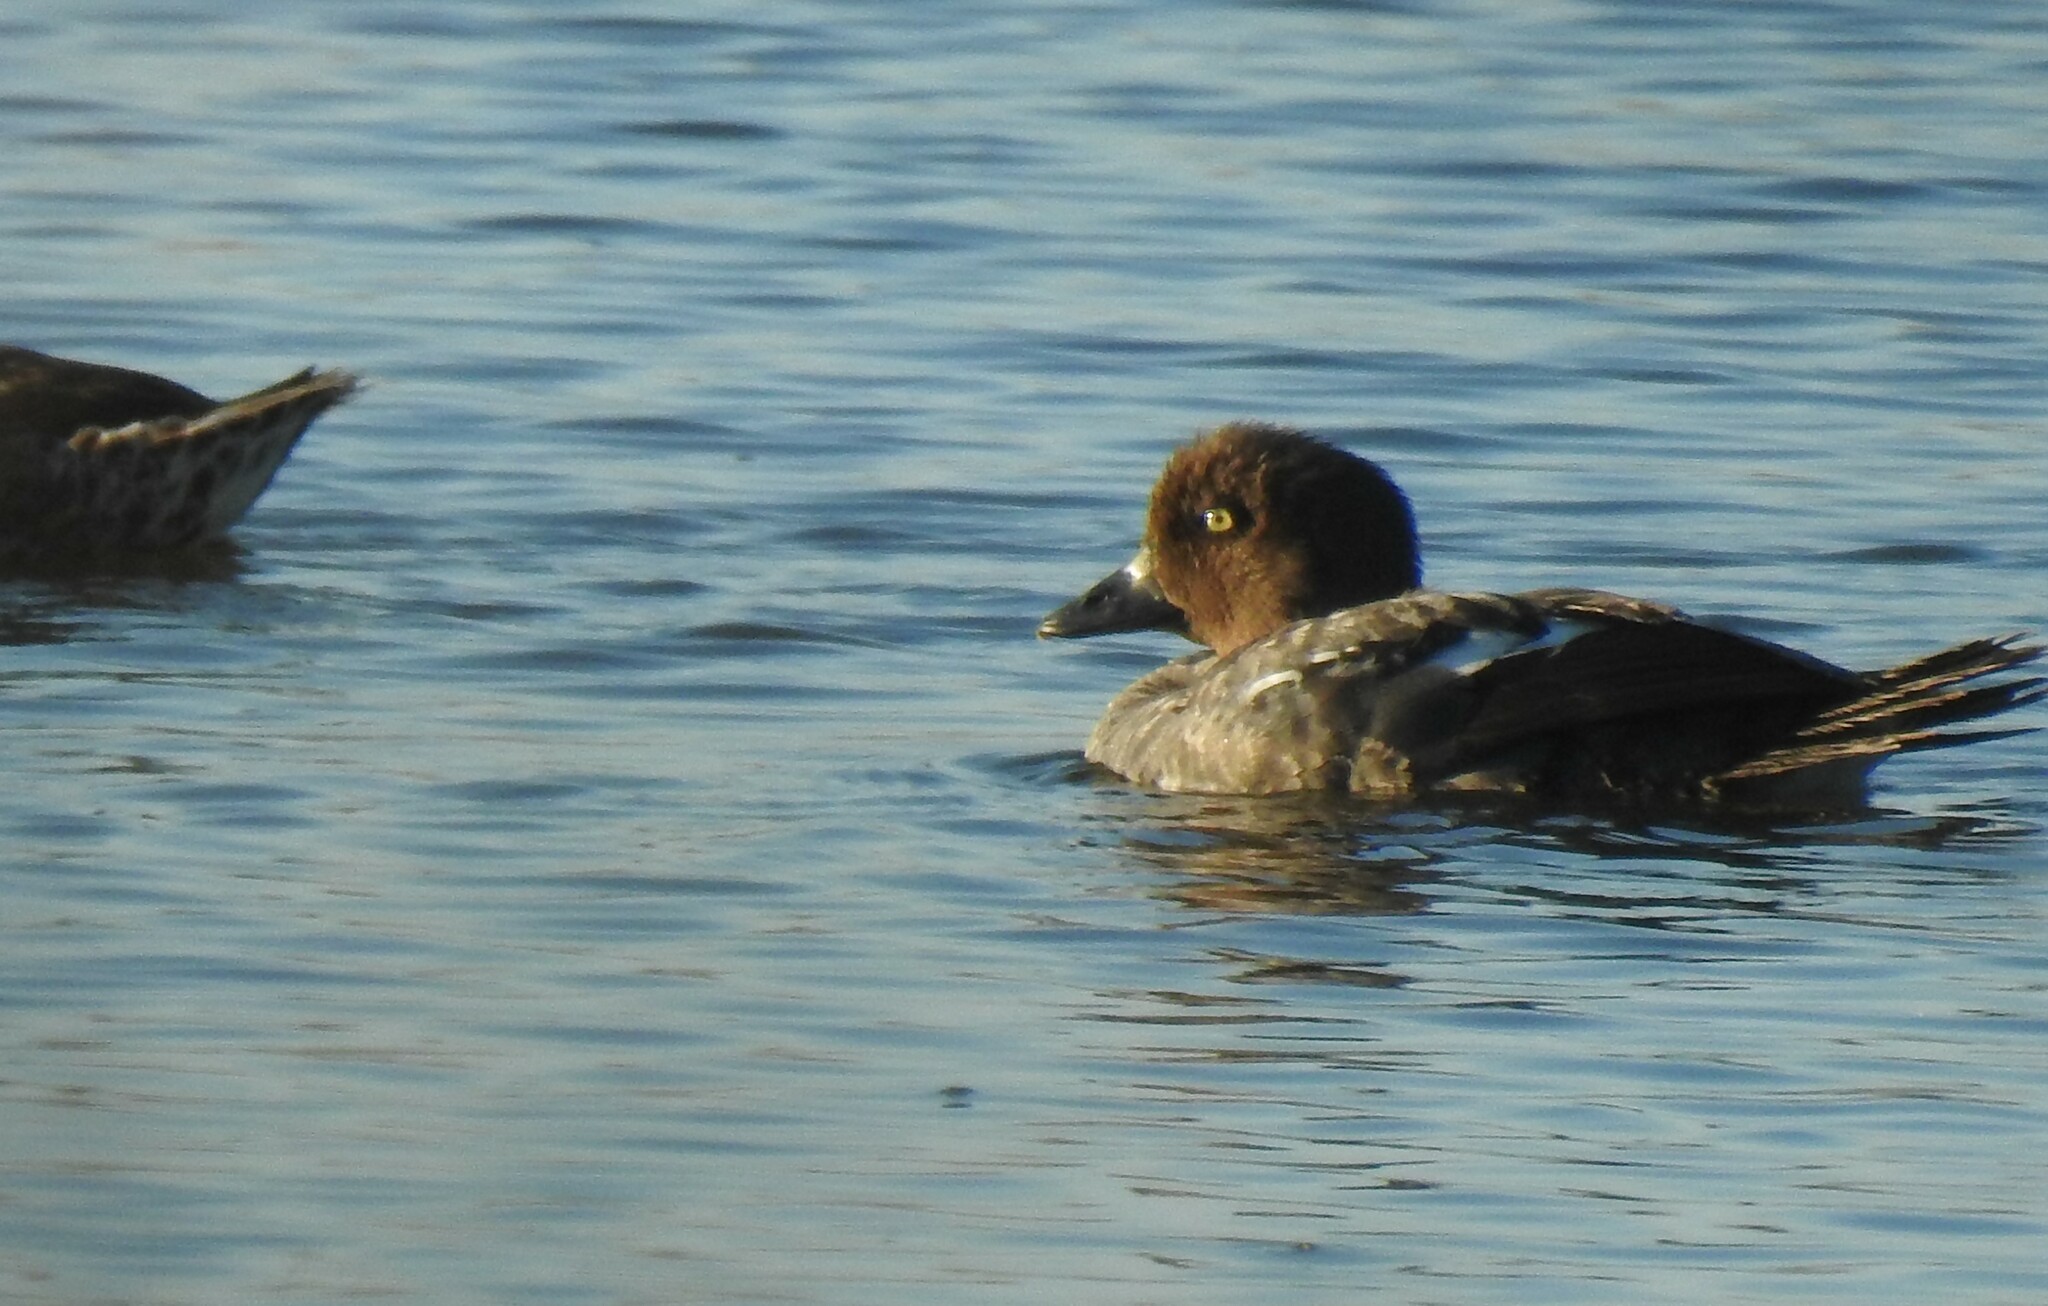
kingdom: Animalia
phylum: Chordata
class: Aves
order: Anseriformes
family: Anatidae
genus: Bucephala
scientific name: Bucephala clangula
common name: Common goldeneye
